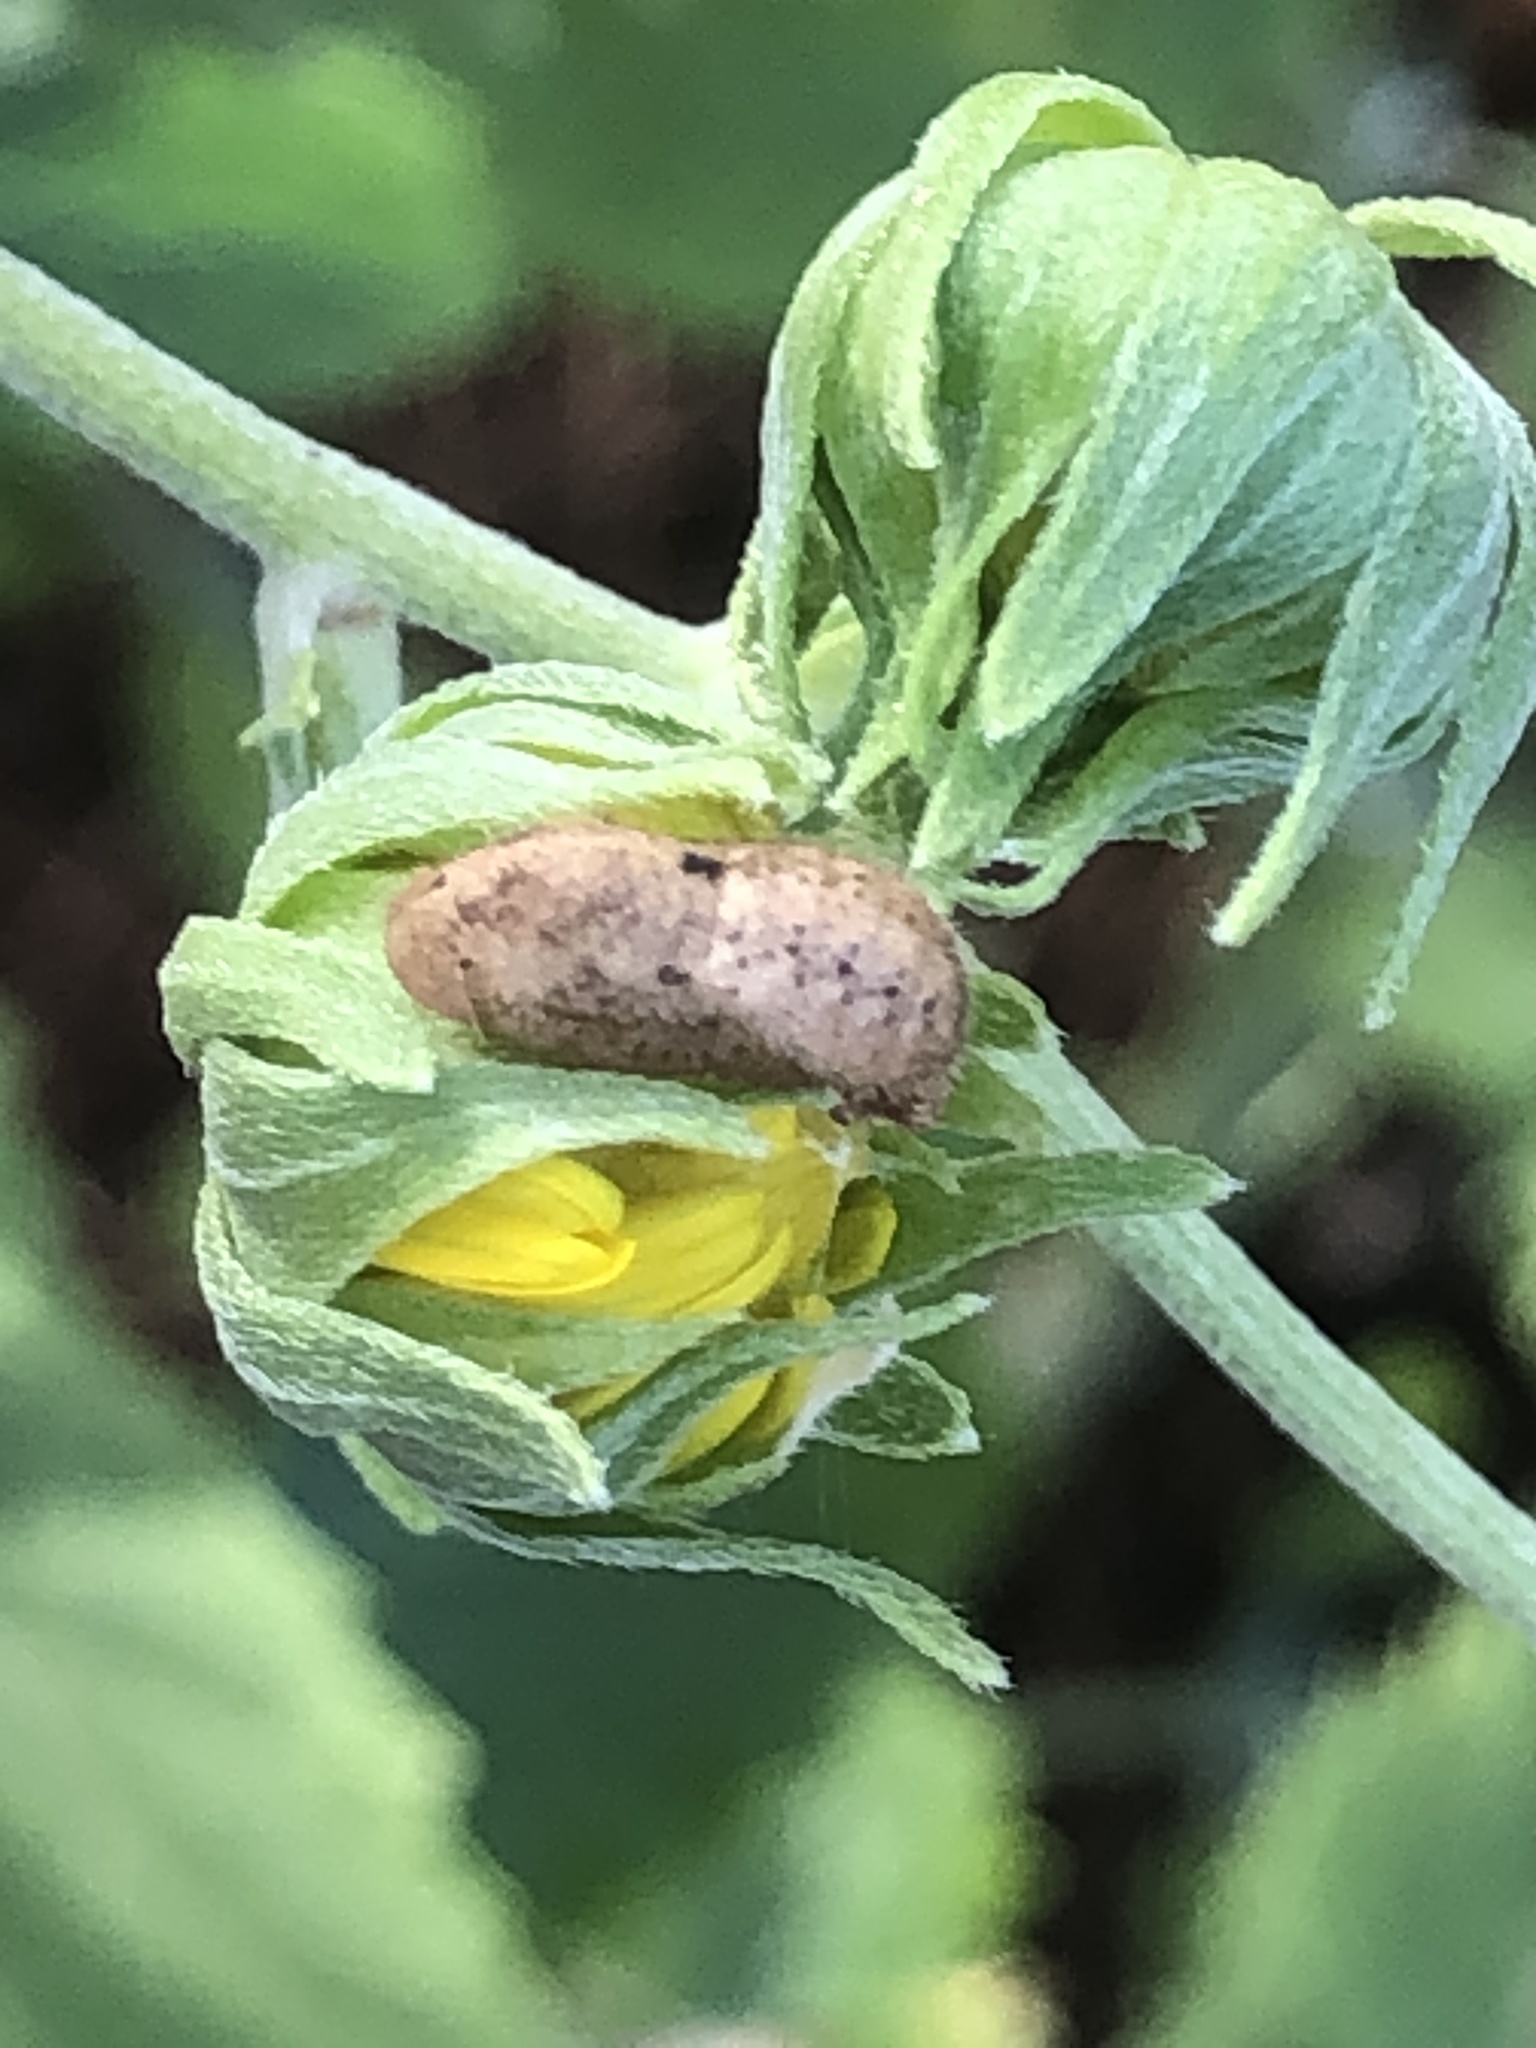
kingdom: Animalia
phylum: Arthropoda
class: Insecta
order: Lepidoptera
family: Lycaenidae
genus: Strymon
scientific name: Strymon melinus
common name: Gray hairstreak
